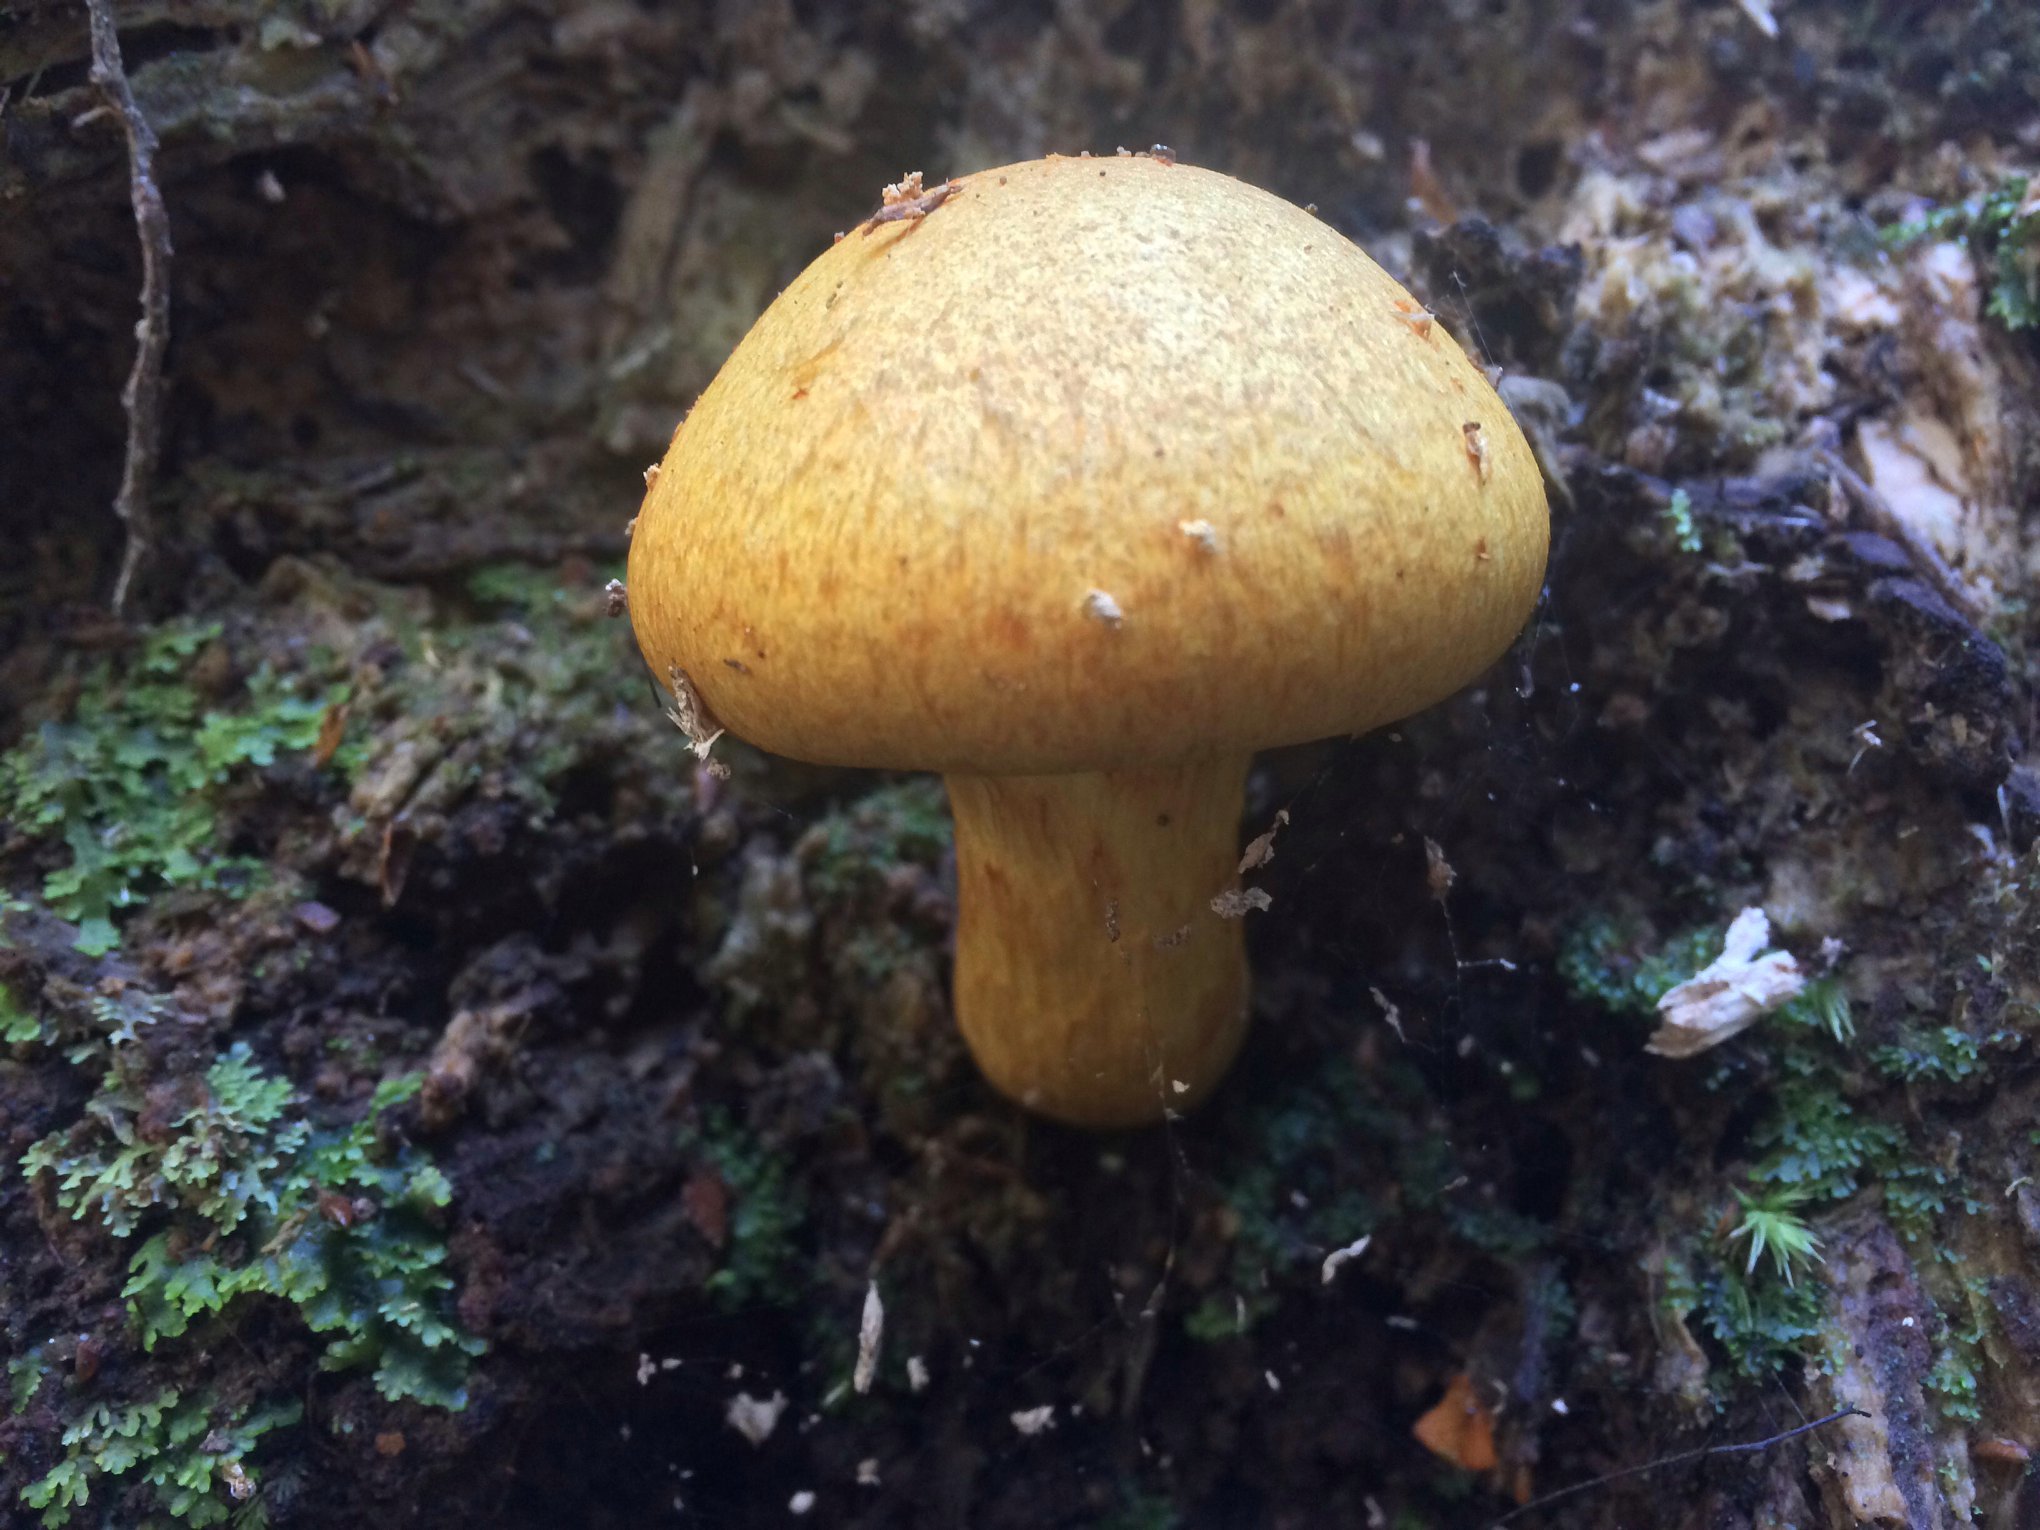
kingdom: Fungi
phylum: Basidiomycota
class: Agaricomycetes
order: Agaricales
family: Hymenogastraceae
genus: Gymnopilus
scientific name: Gymnopilus junonius
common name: Spectacular rustgill
